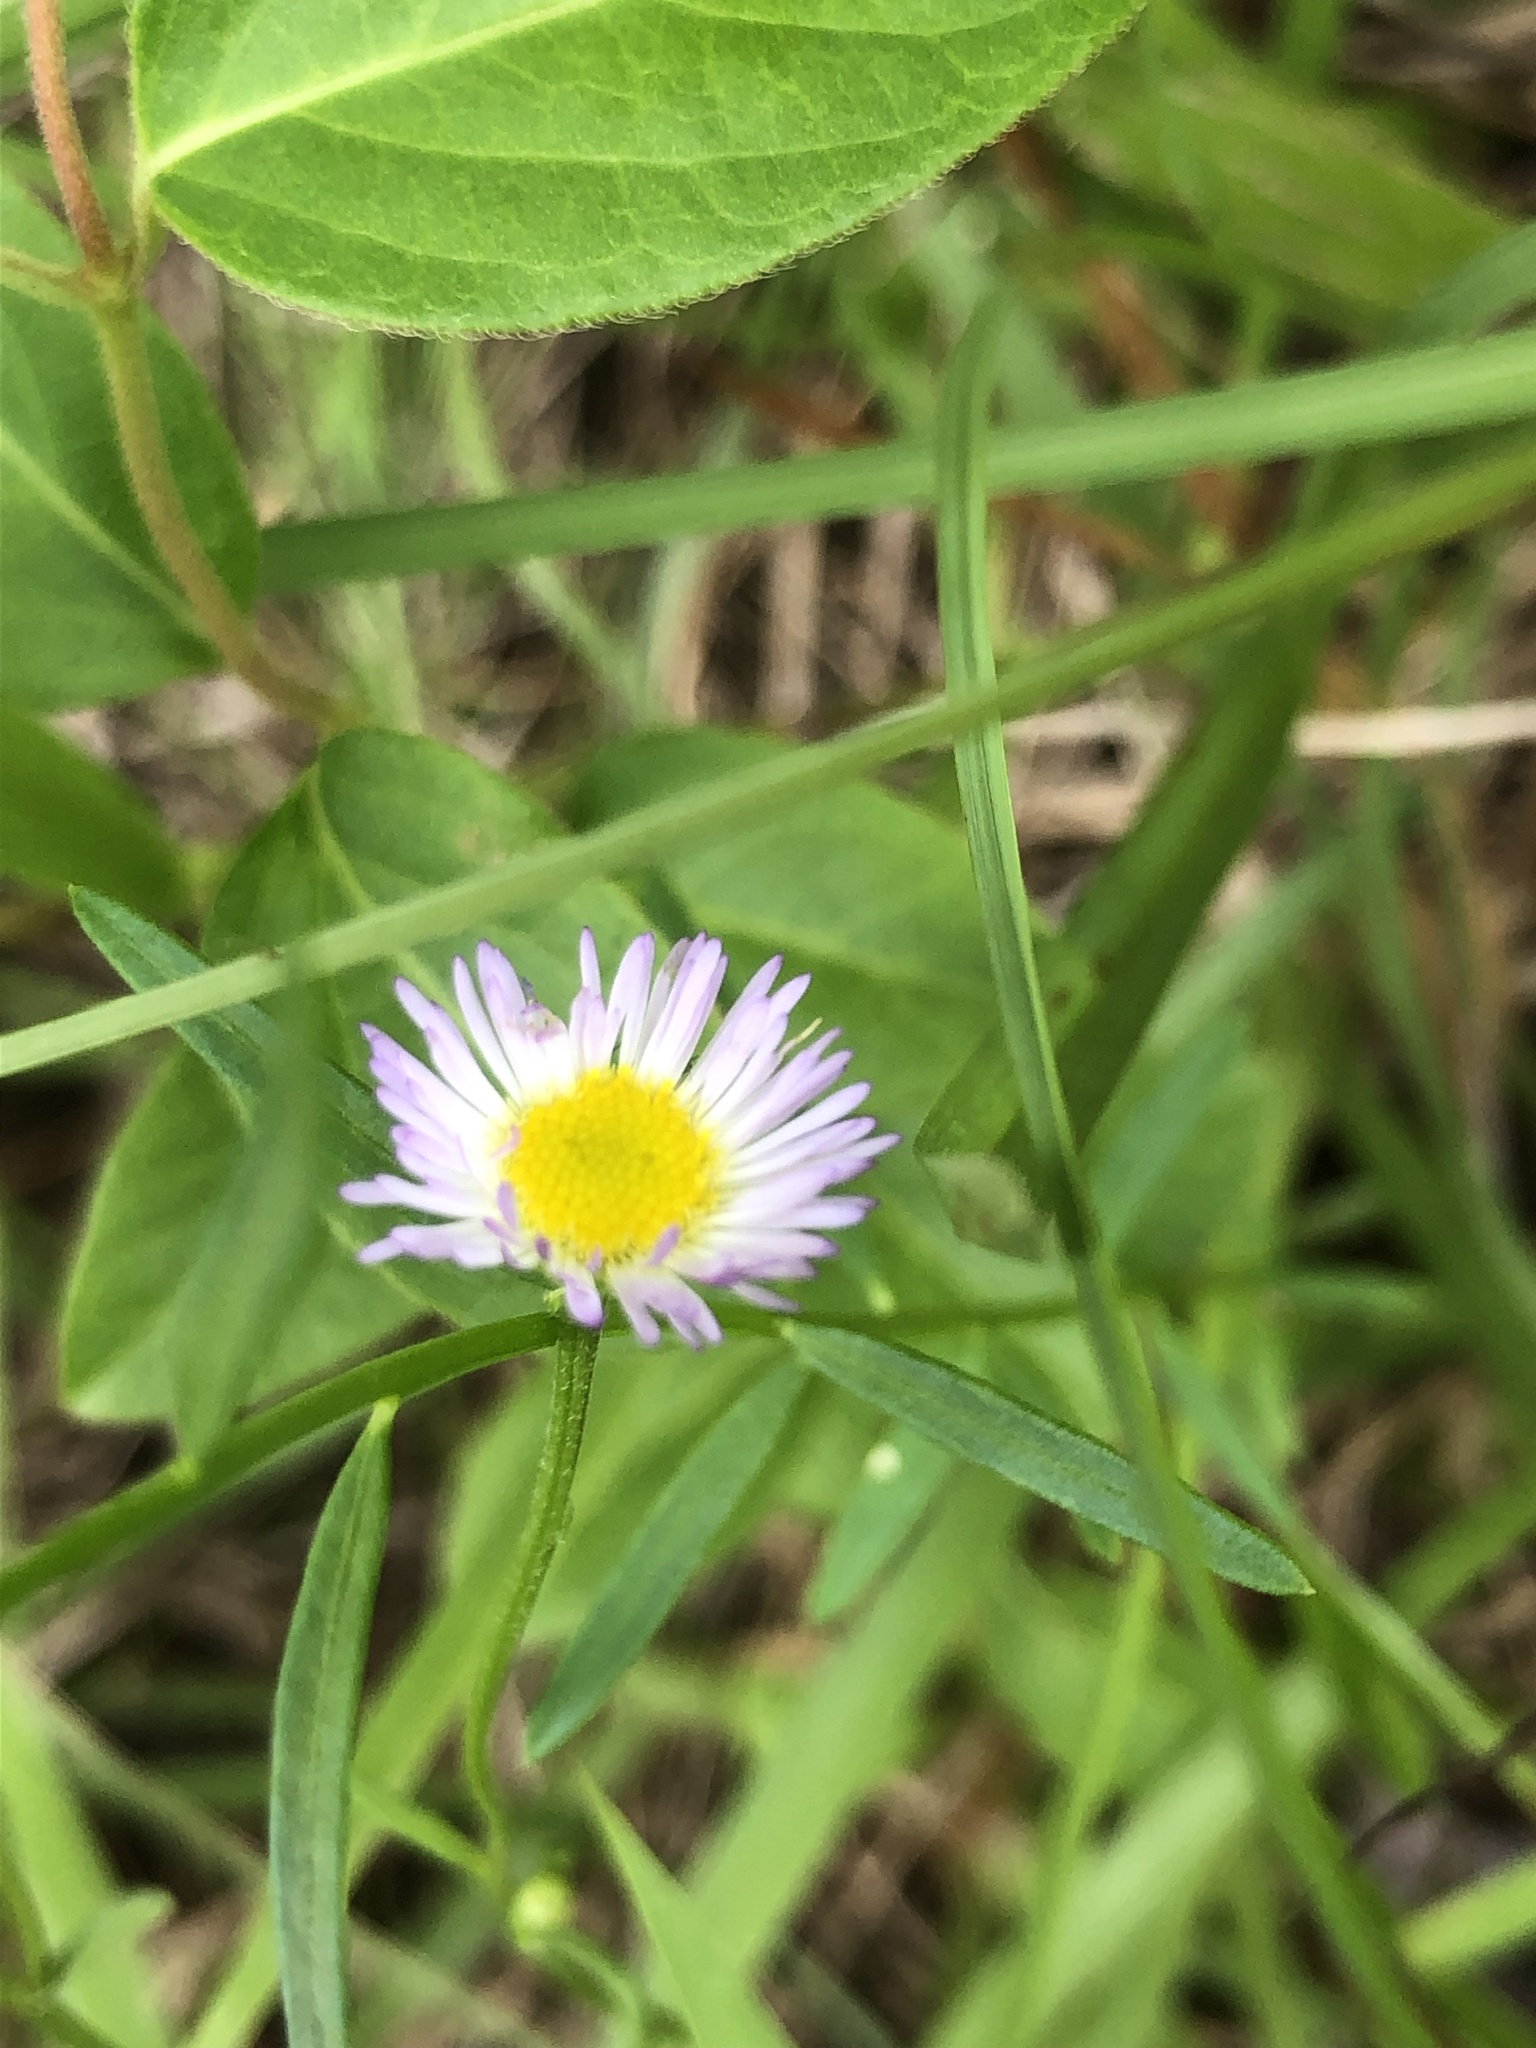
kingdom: Plantae
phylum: Tracheophyta
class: Magnoliopsida
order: Asterales
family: Asteraceae
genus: Erigeron
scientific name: Erigeron tenuis
